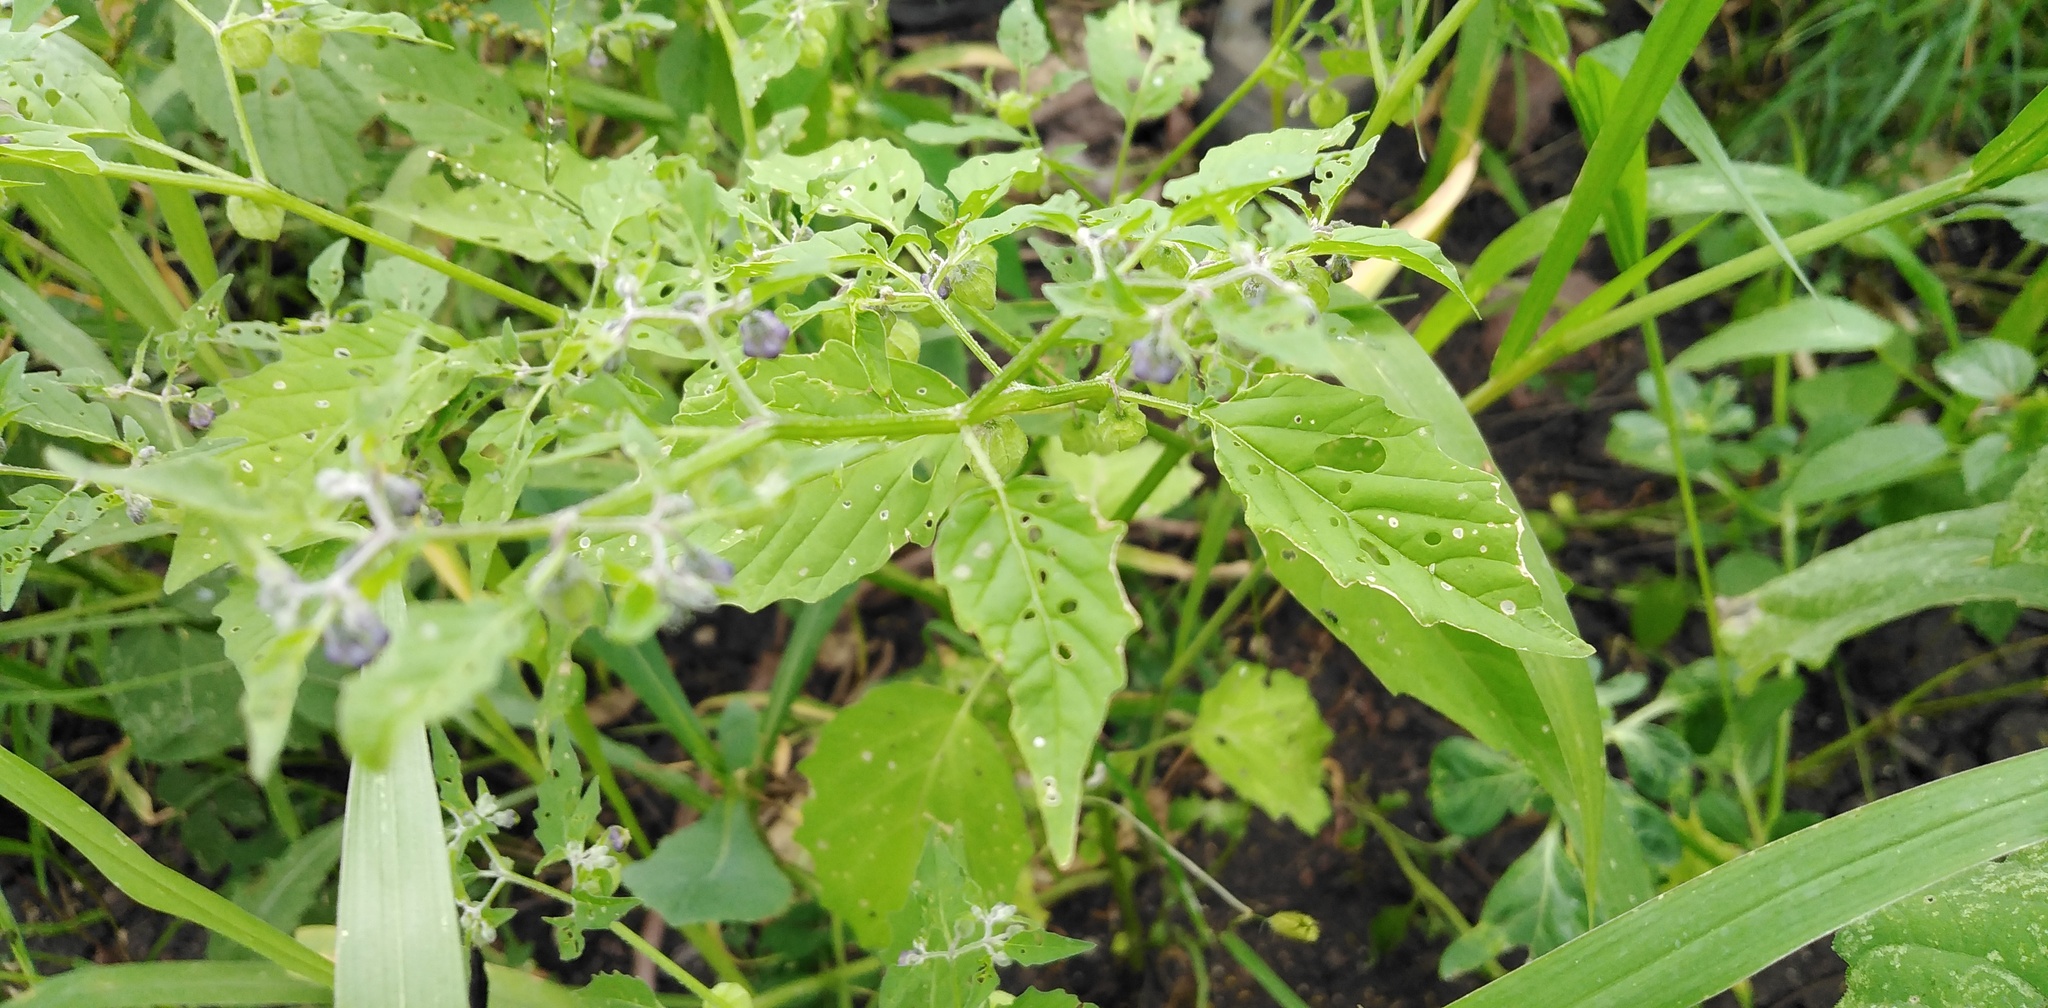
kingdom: Plantae
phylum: Tracheophyta
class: Magnoliopsida
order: Solanales
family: Solanaceae
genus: Physalis
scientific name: Physalis solanacea
